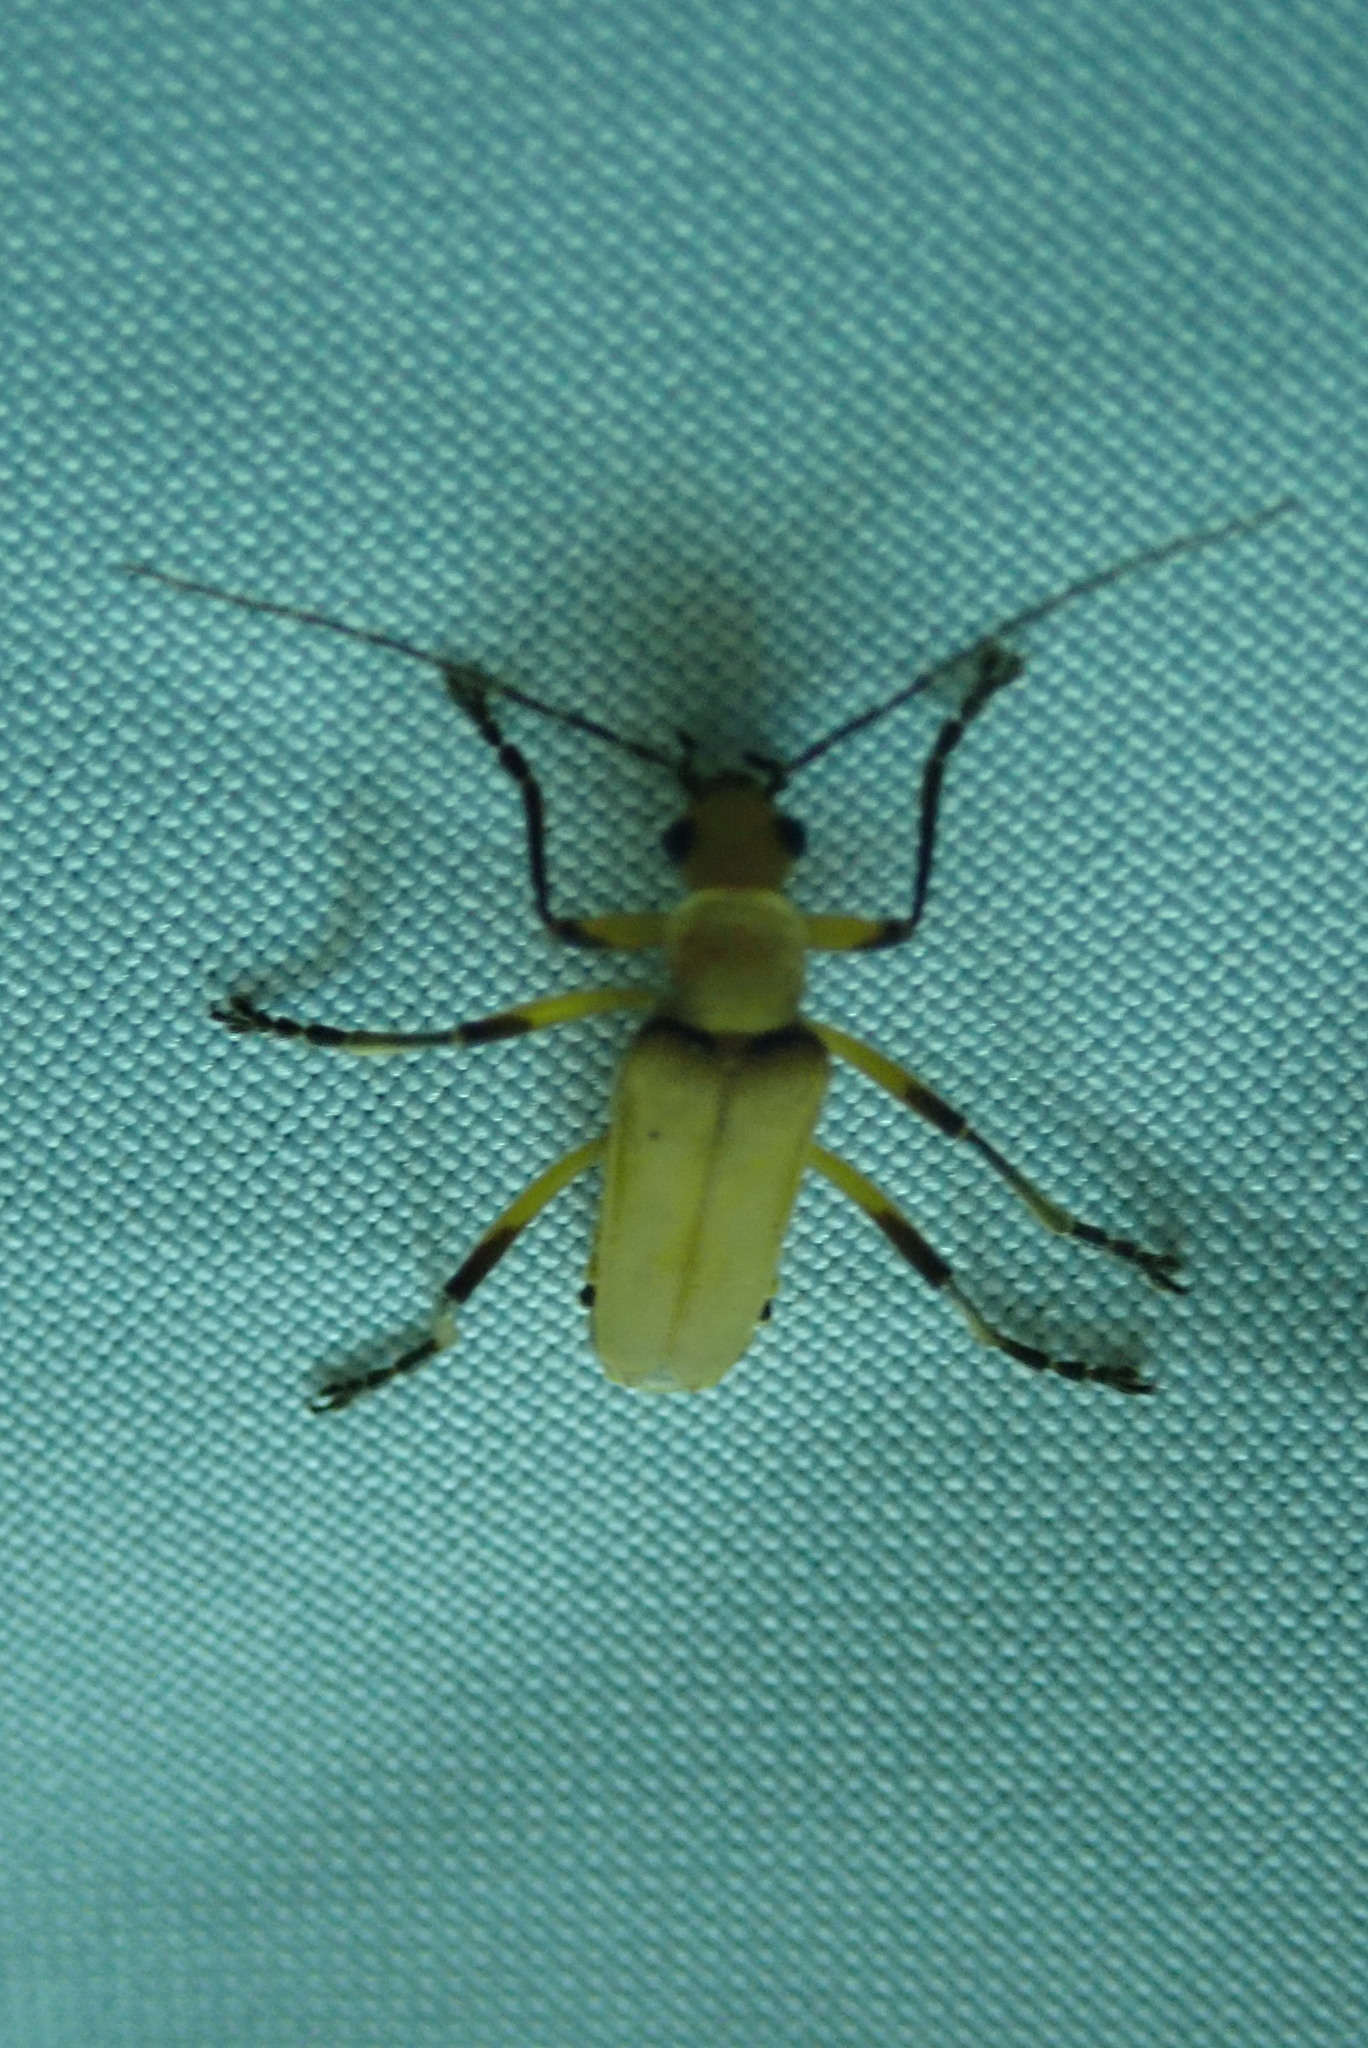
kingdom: Animalia
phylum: Arthropoda
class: Insecta
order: Coleoptera
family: Cantharidae
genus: Chauliognathus
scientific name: Chauliognathus
